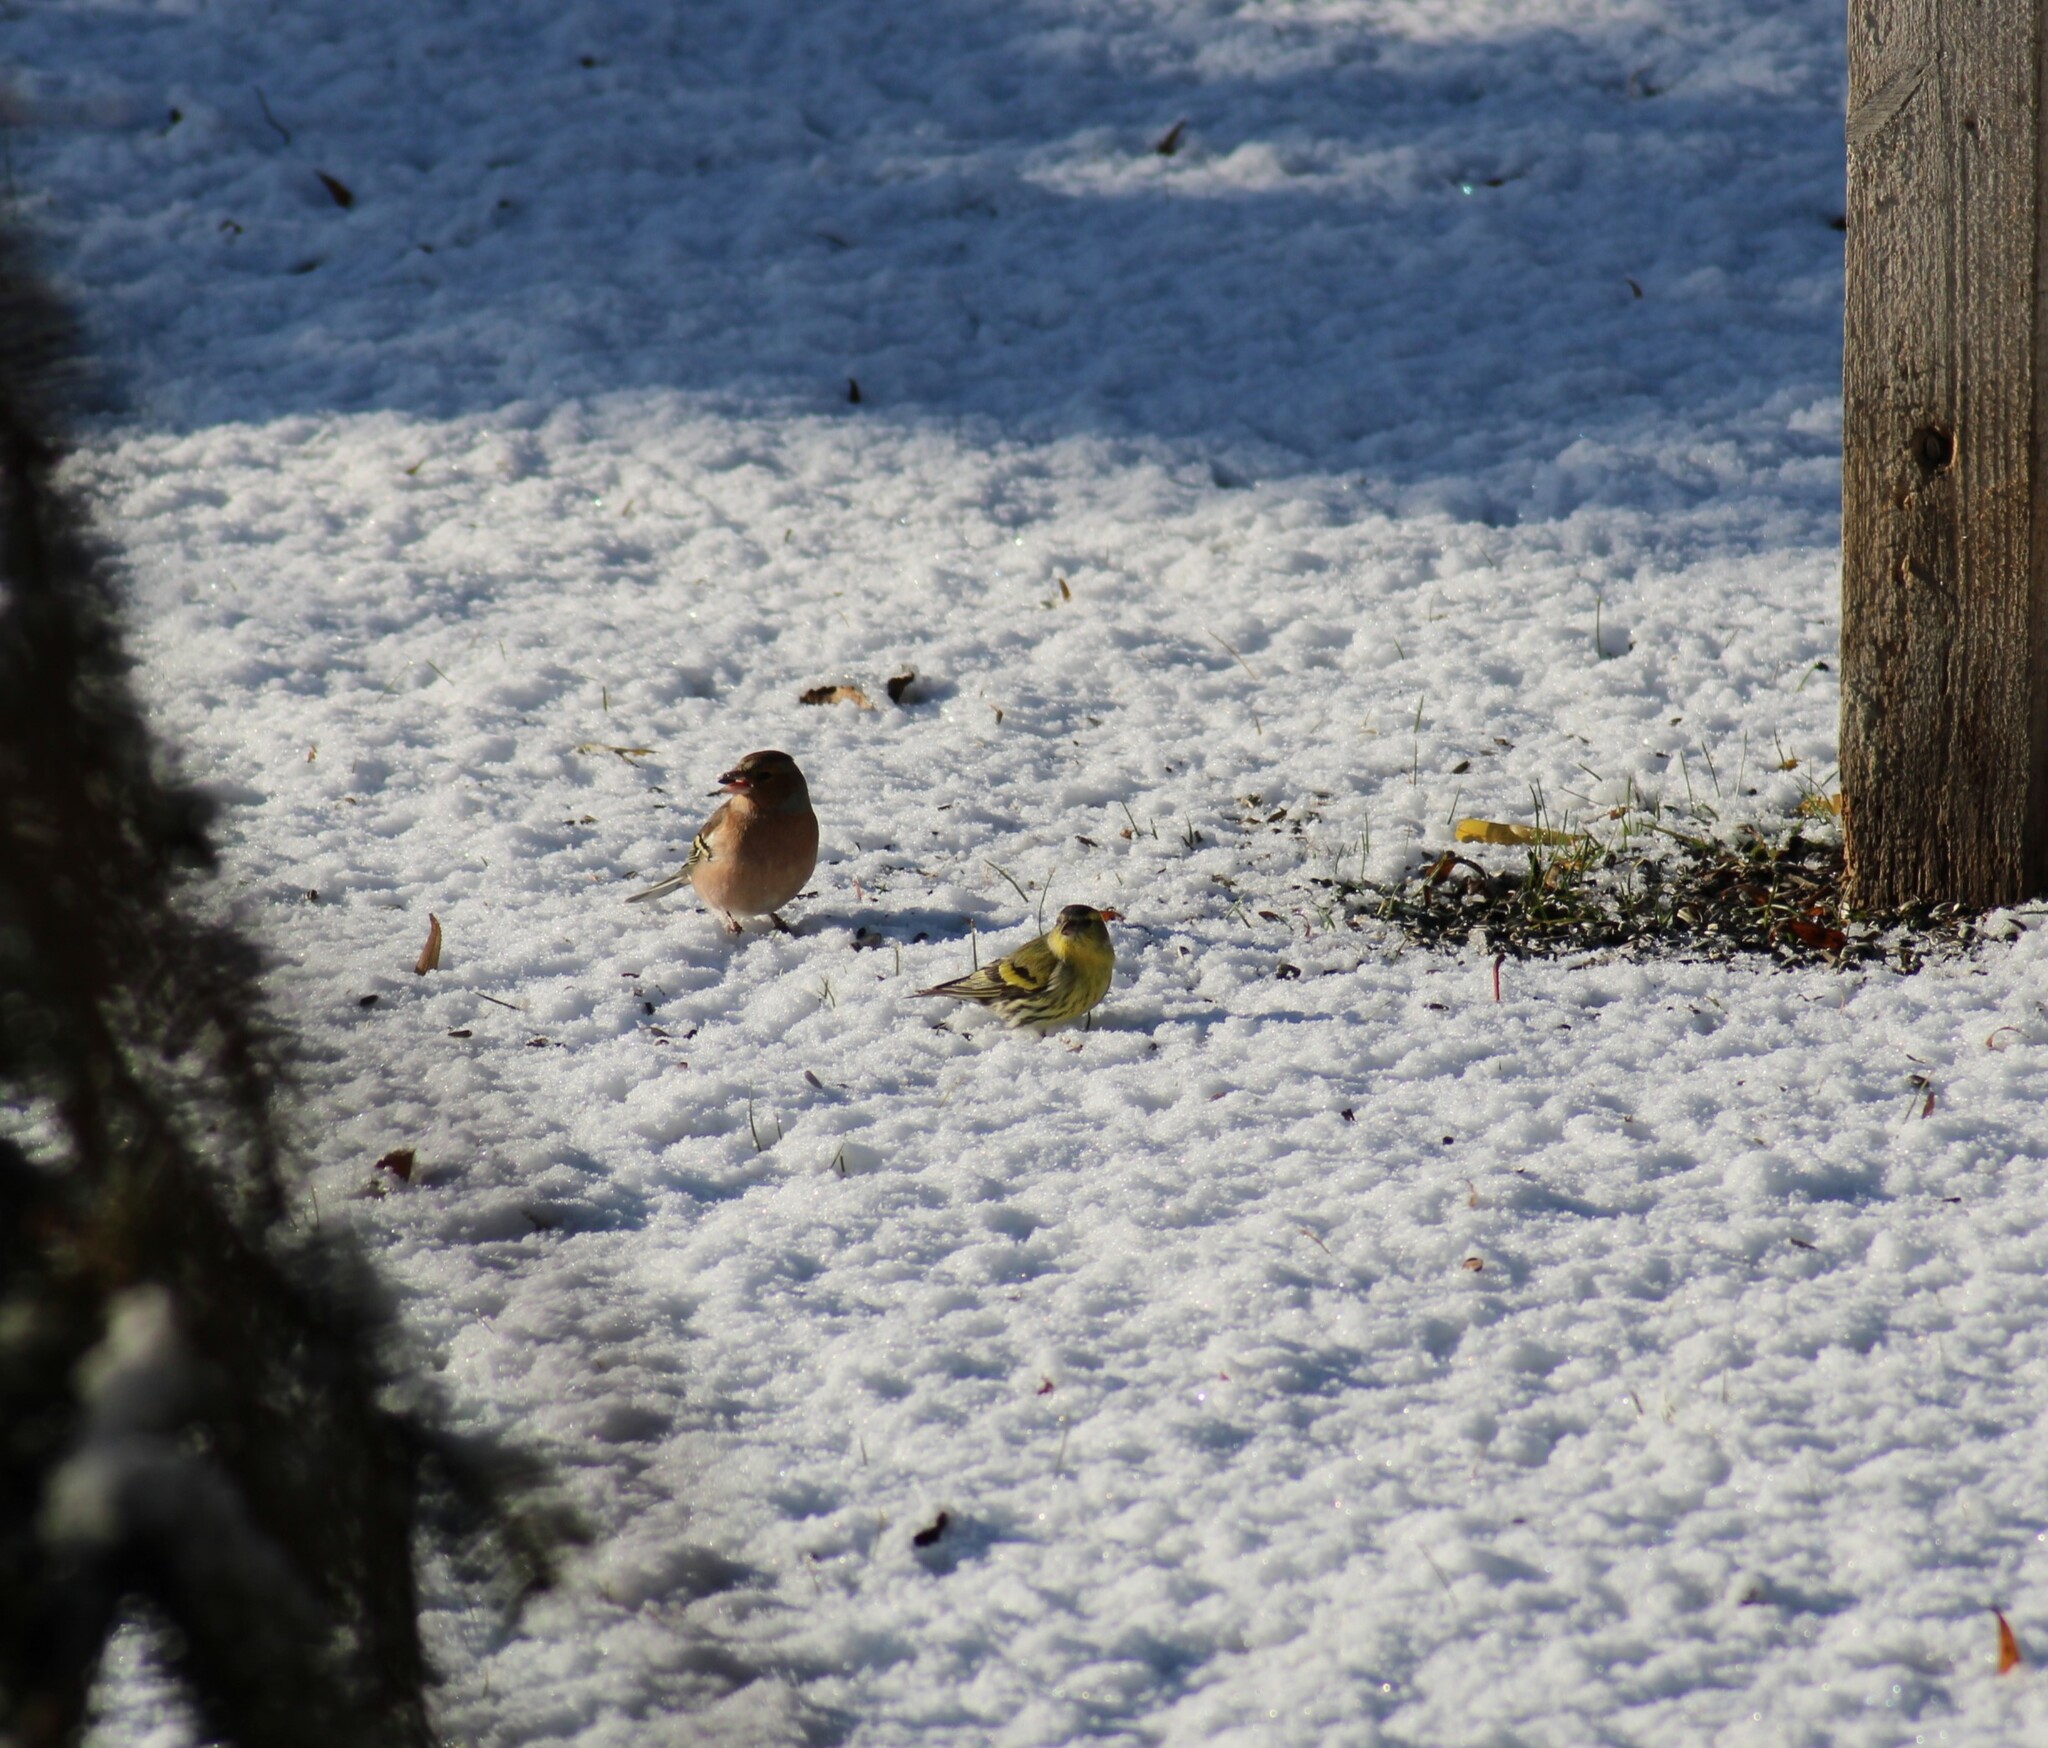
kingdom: Animalia
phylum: Chordata
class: Aves
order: Passeriformes
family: Fringillidae
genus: Spinus
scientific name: Spinus spinus
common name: Eurasian siskin
